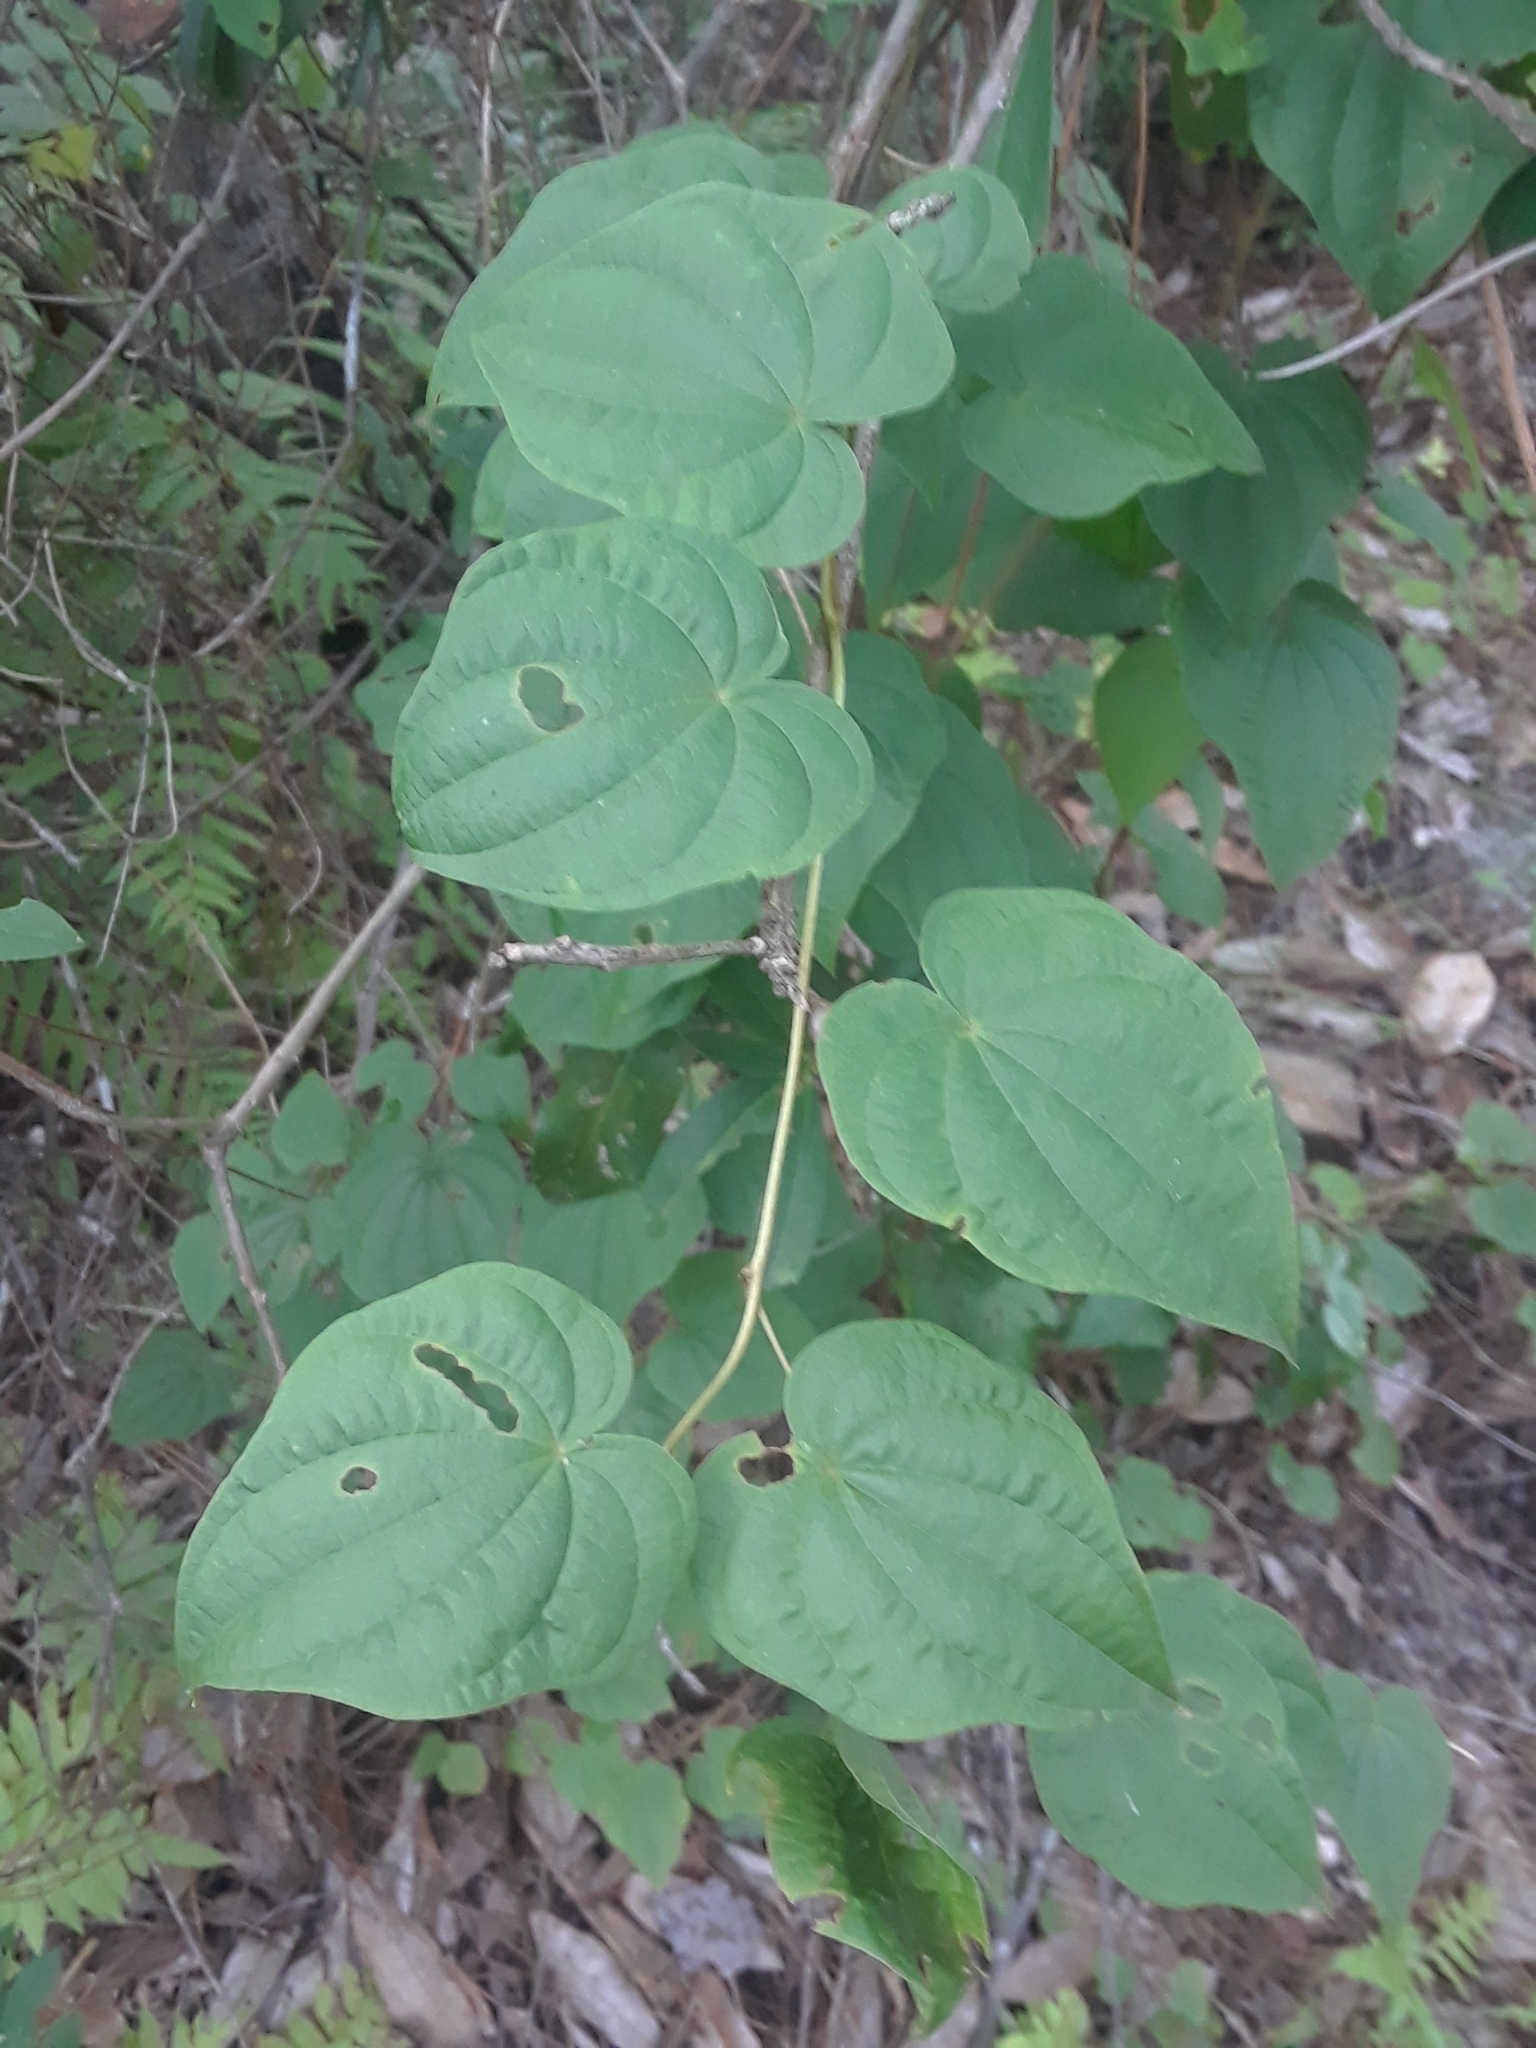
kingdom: Plantae
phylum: Tracheophyta
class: Liliopsida
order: Dioscoreales
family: Dioscoreaceae
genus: Dioscorea
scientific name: Dioscorea villosa
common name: Wild yam
